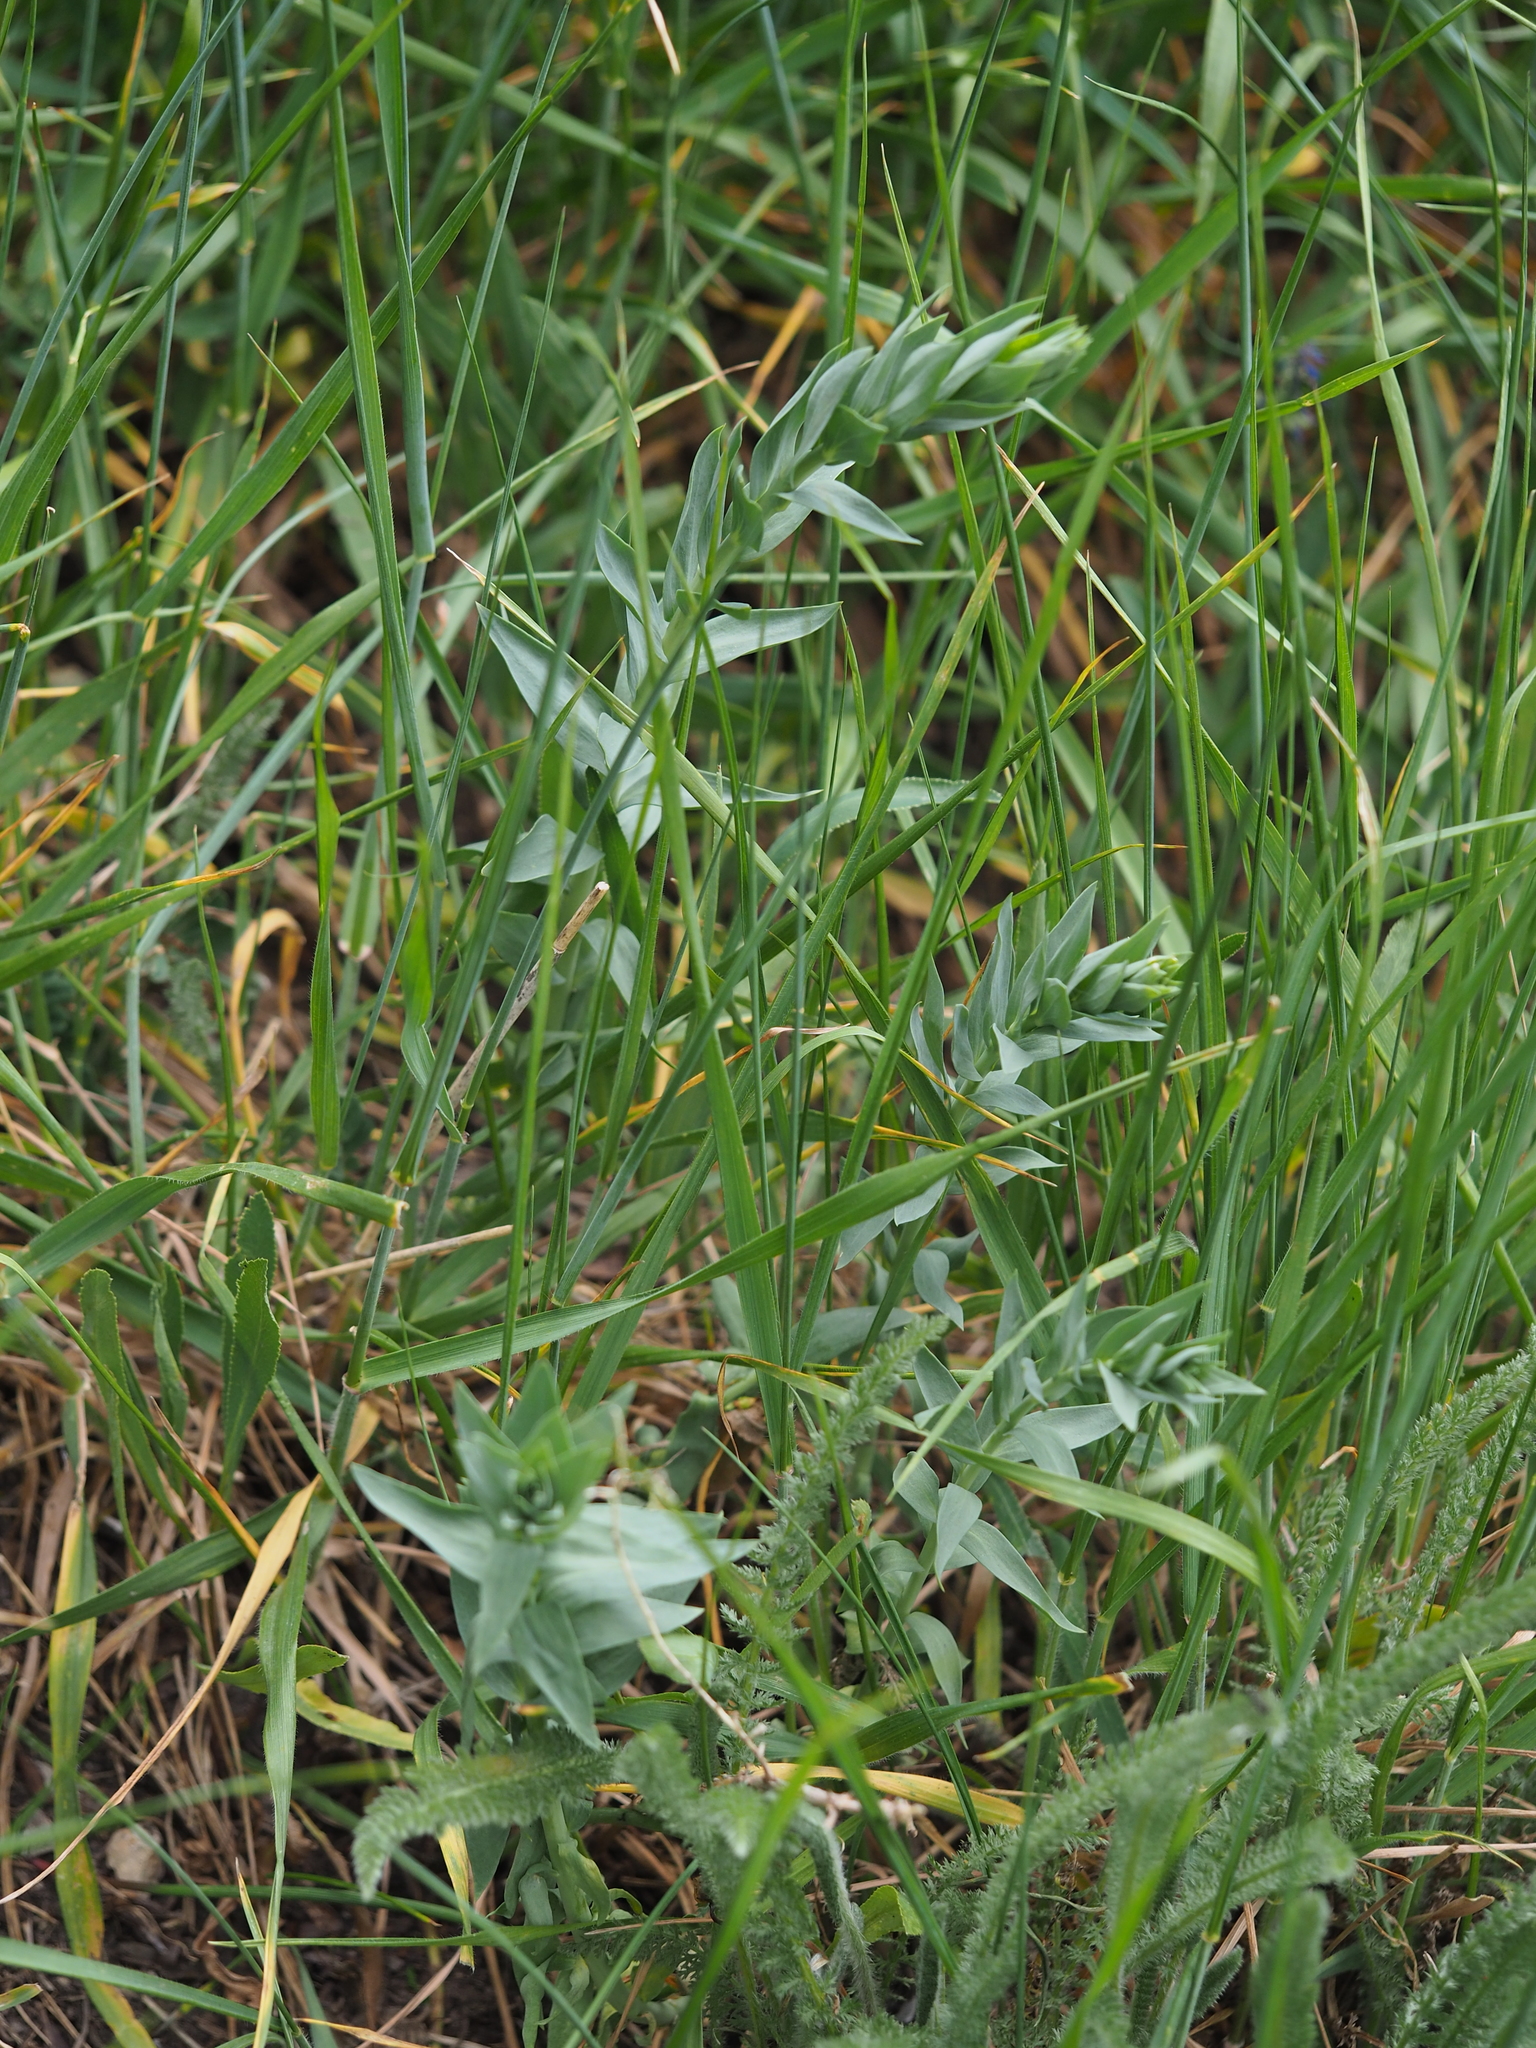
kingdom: Plantae
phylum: Tracheophyta
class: Magnoliopsida
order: Lamiales
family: Plantaginaceae
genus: Linaria
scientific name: Linaria genistifolia
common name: Broomleaf toadflax
